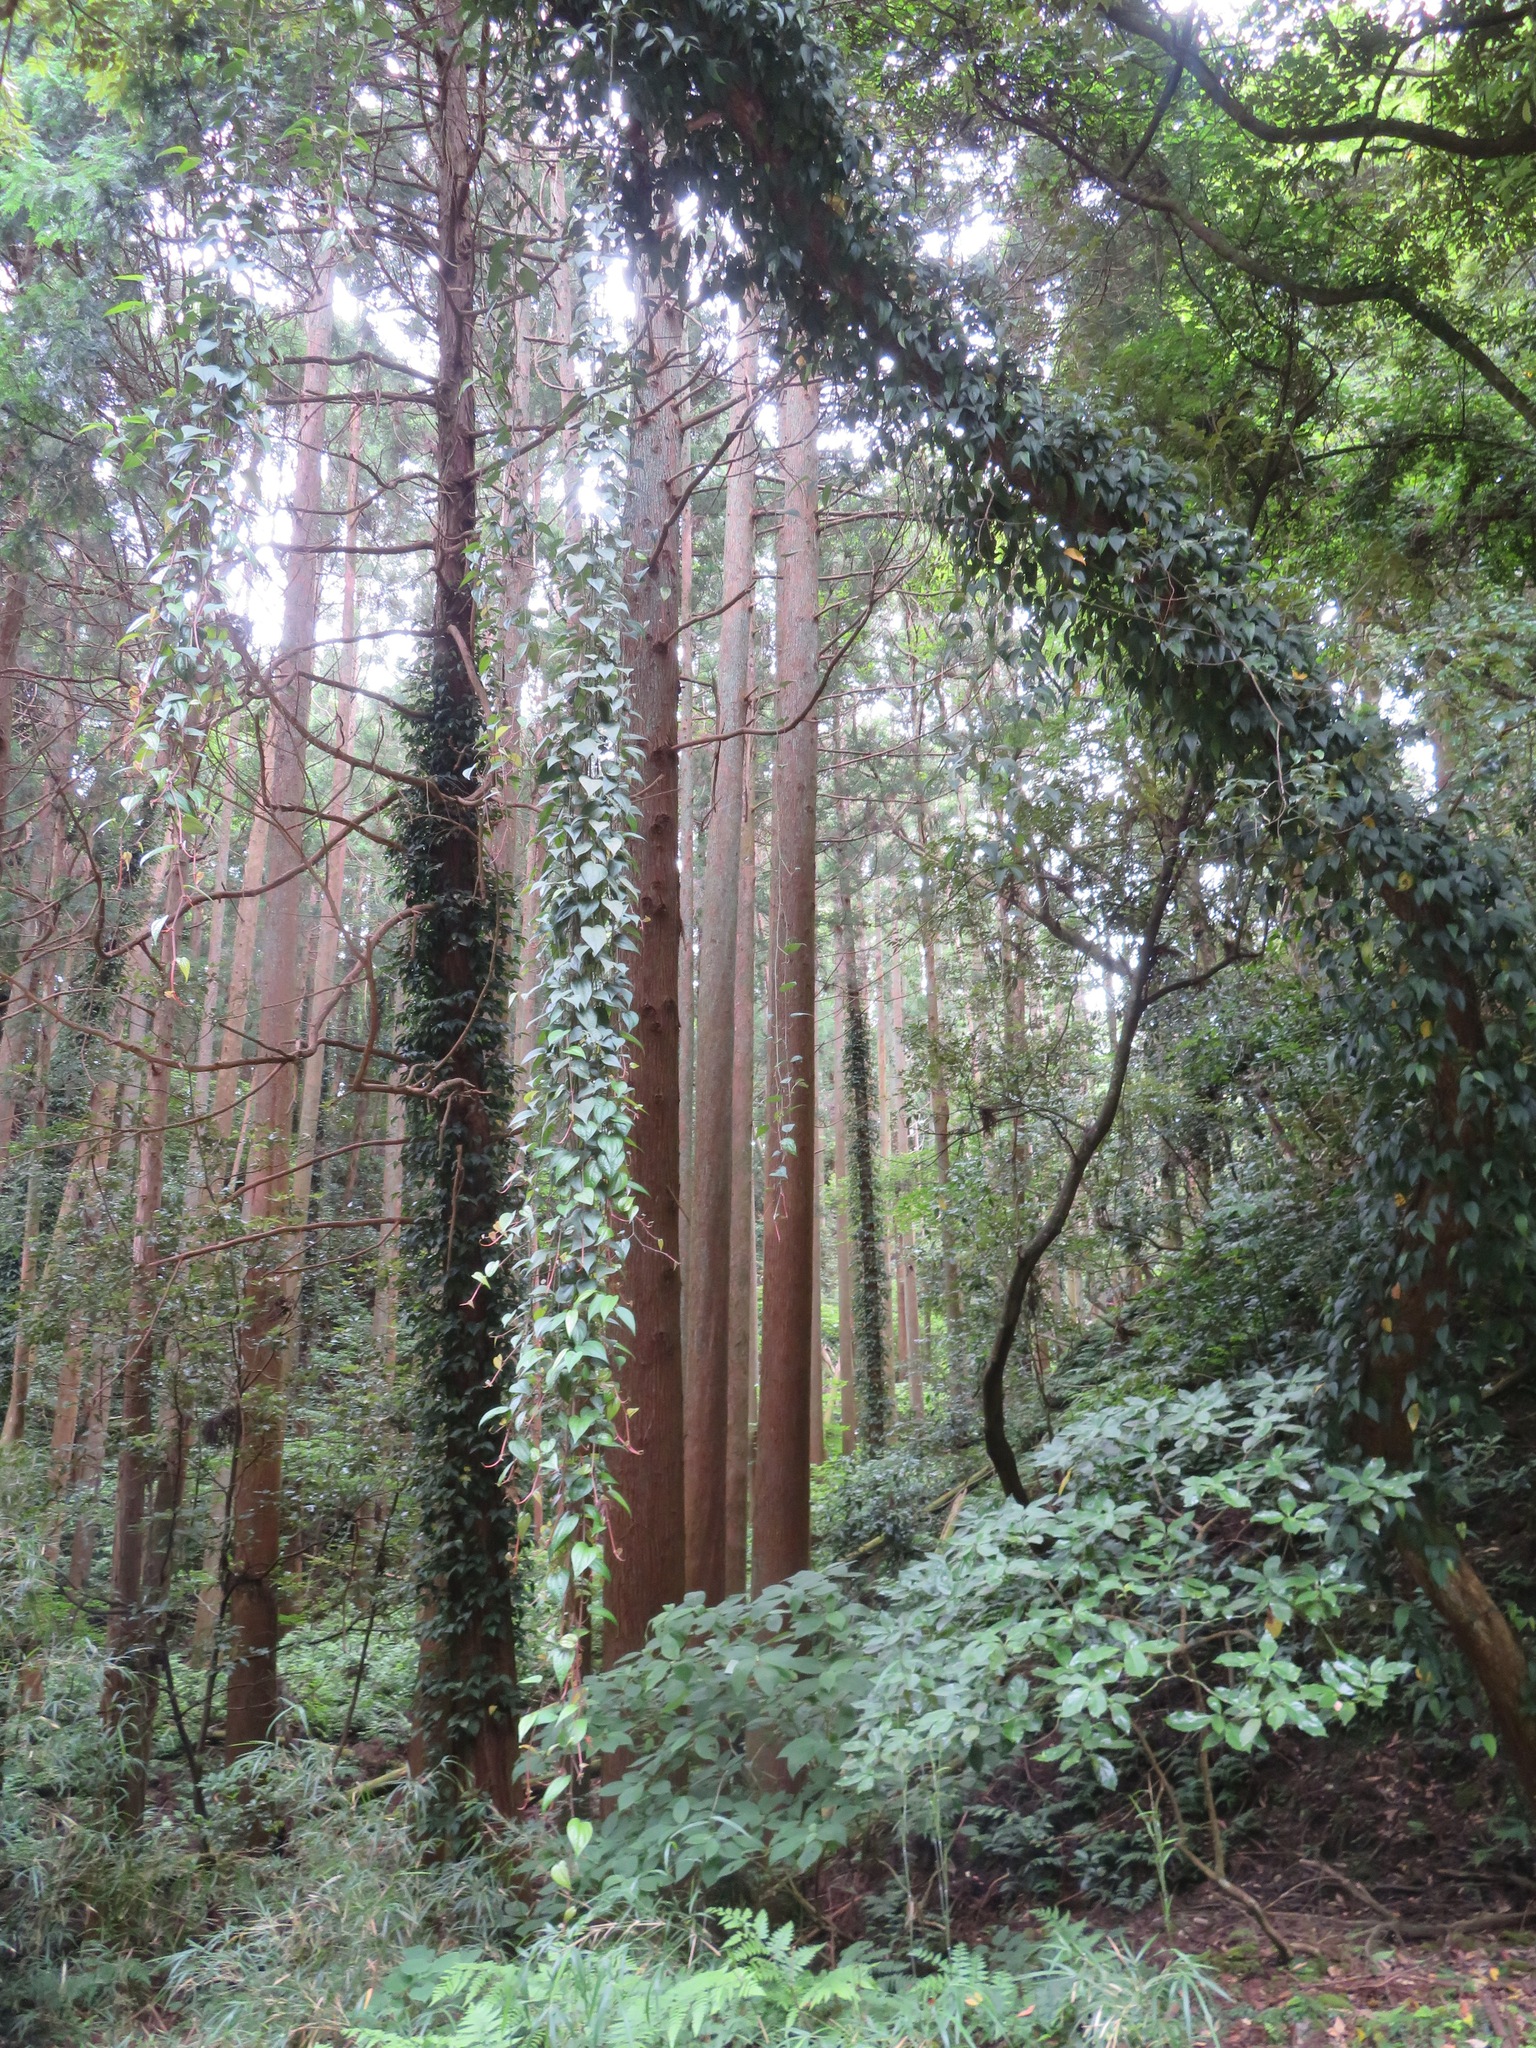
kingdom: Plantae
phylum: Tracheophyta
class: Magnoliopsida
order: Piperales
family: Piperaceae
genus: Piper
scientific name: Piper kadsura
